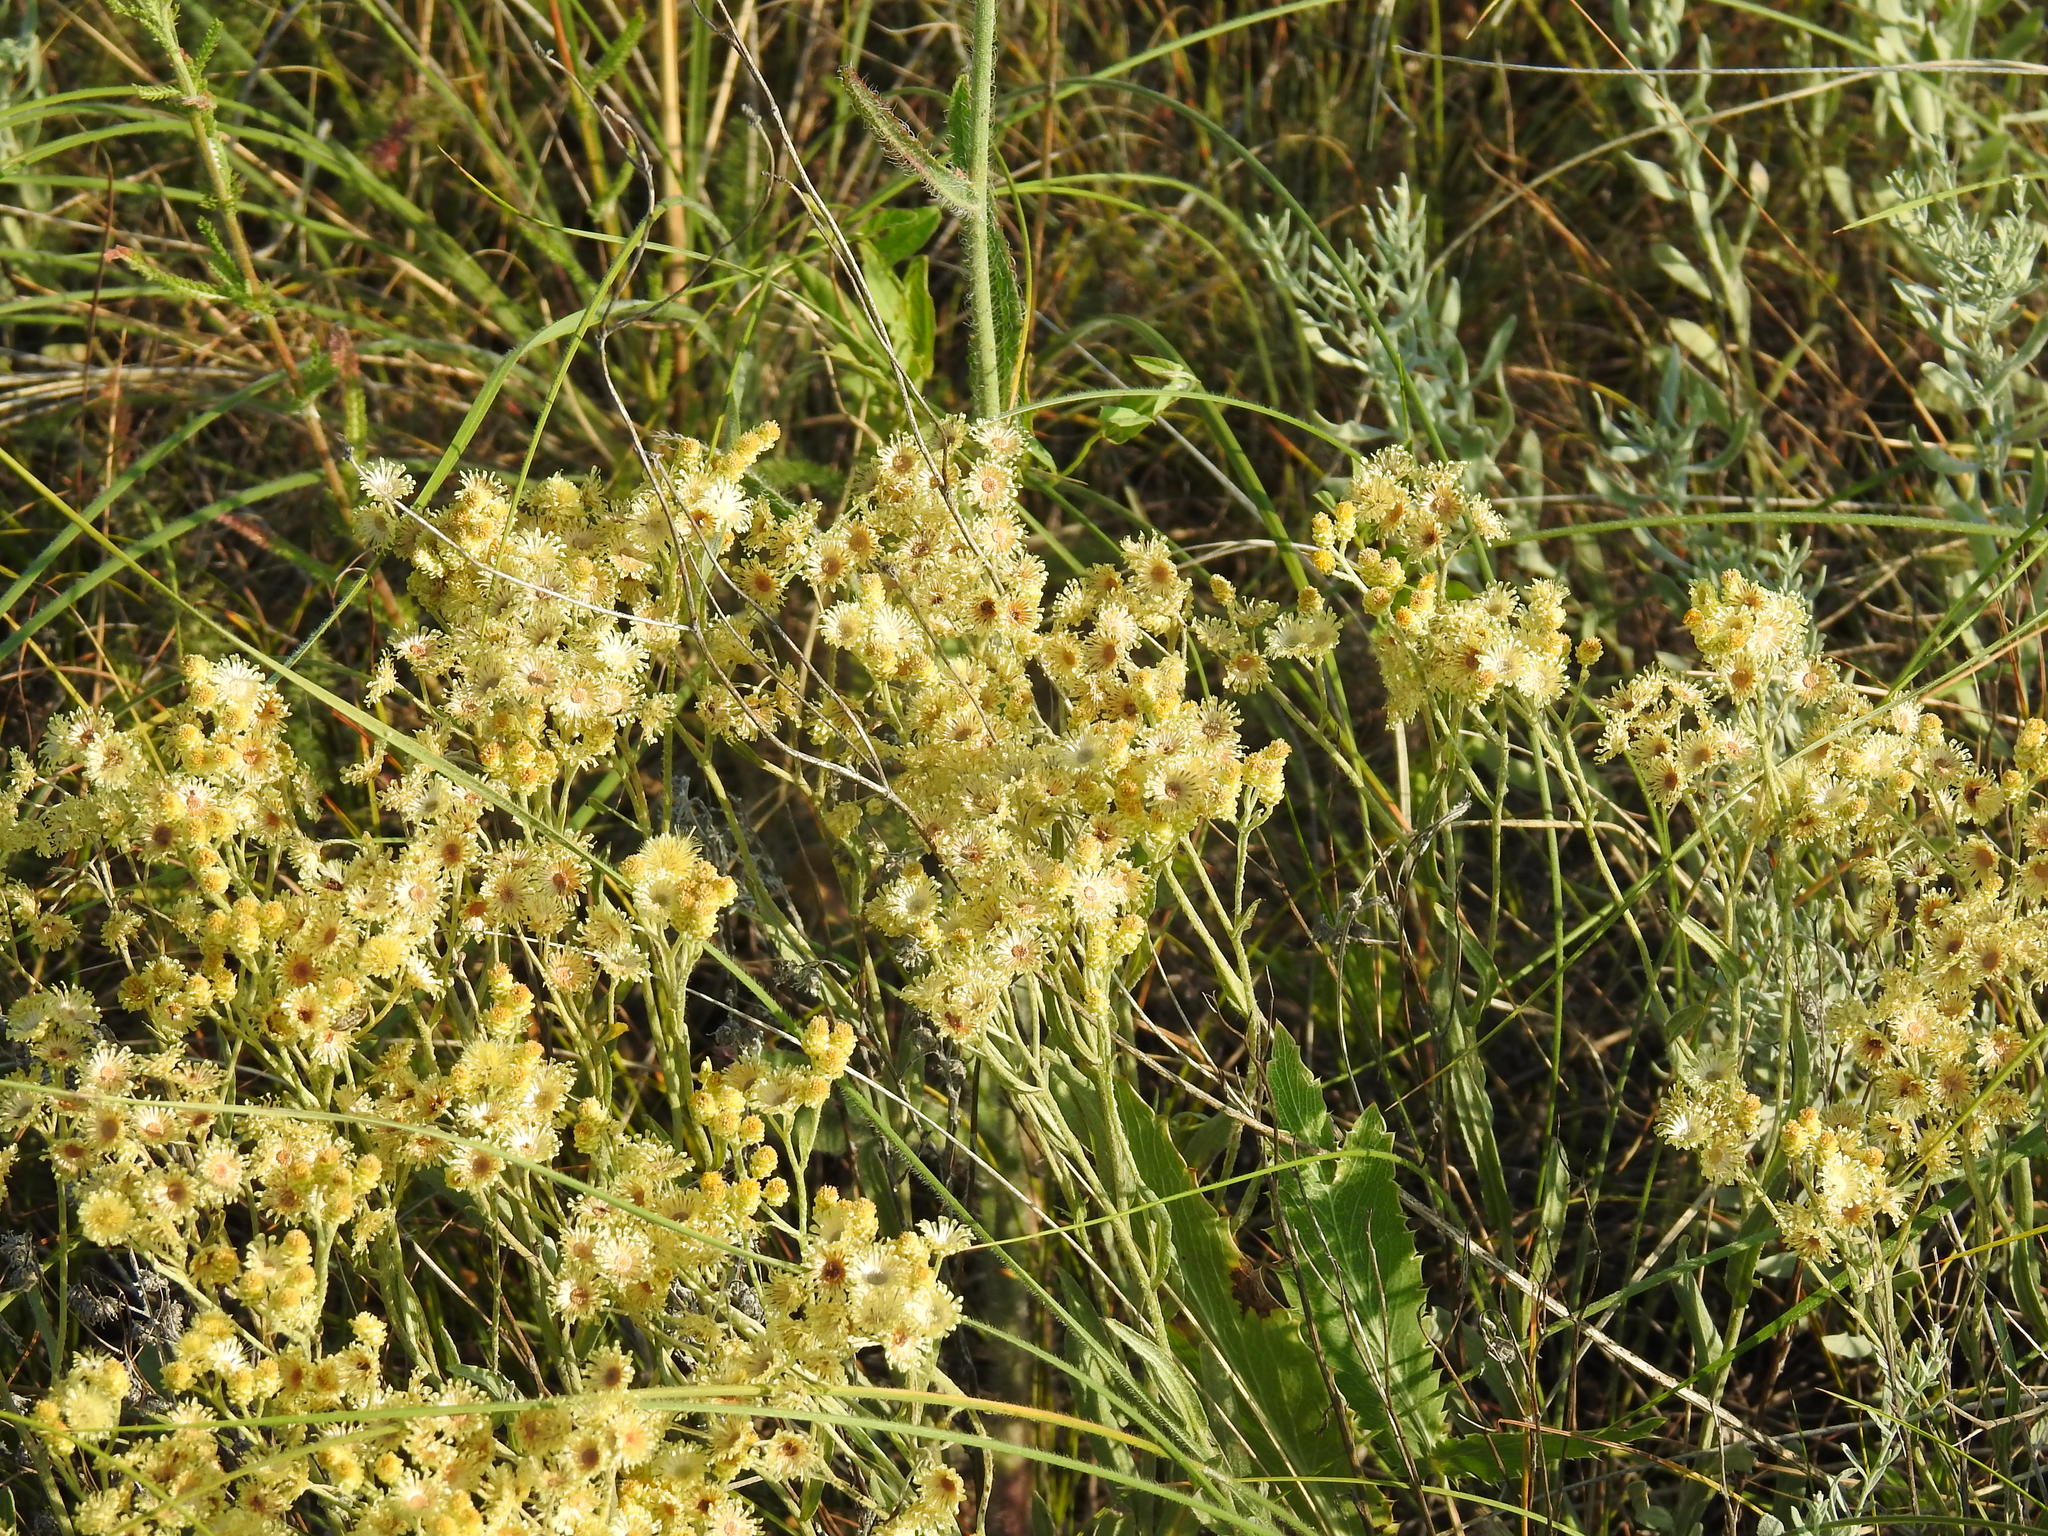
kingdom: Plantae
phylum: Tracheophyta
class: Magnoliopsida
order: Asterales
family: Asteraceae
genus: Helichrysum
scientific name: Helichrysum arenarium
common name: Strawflower
